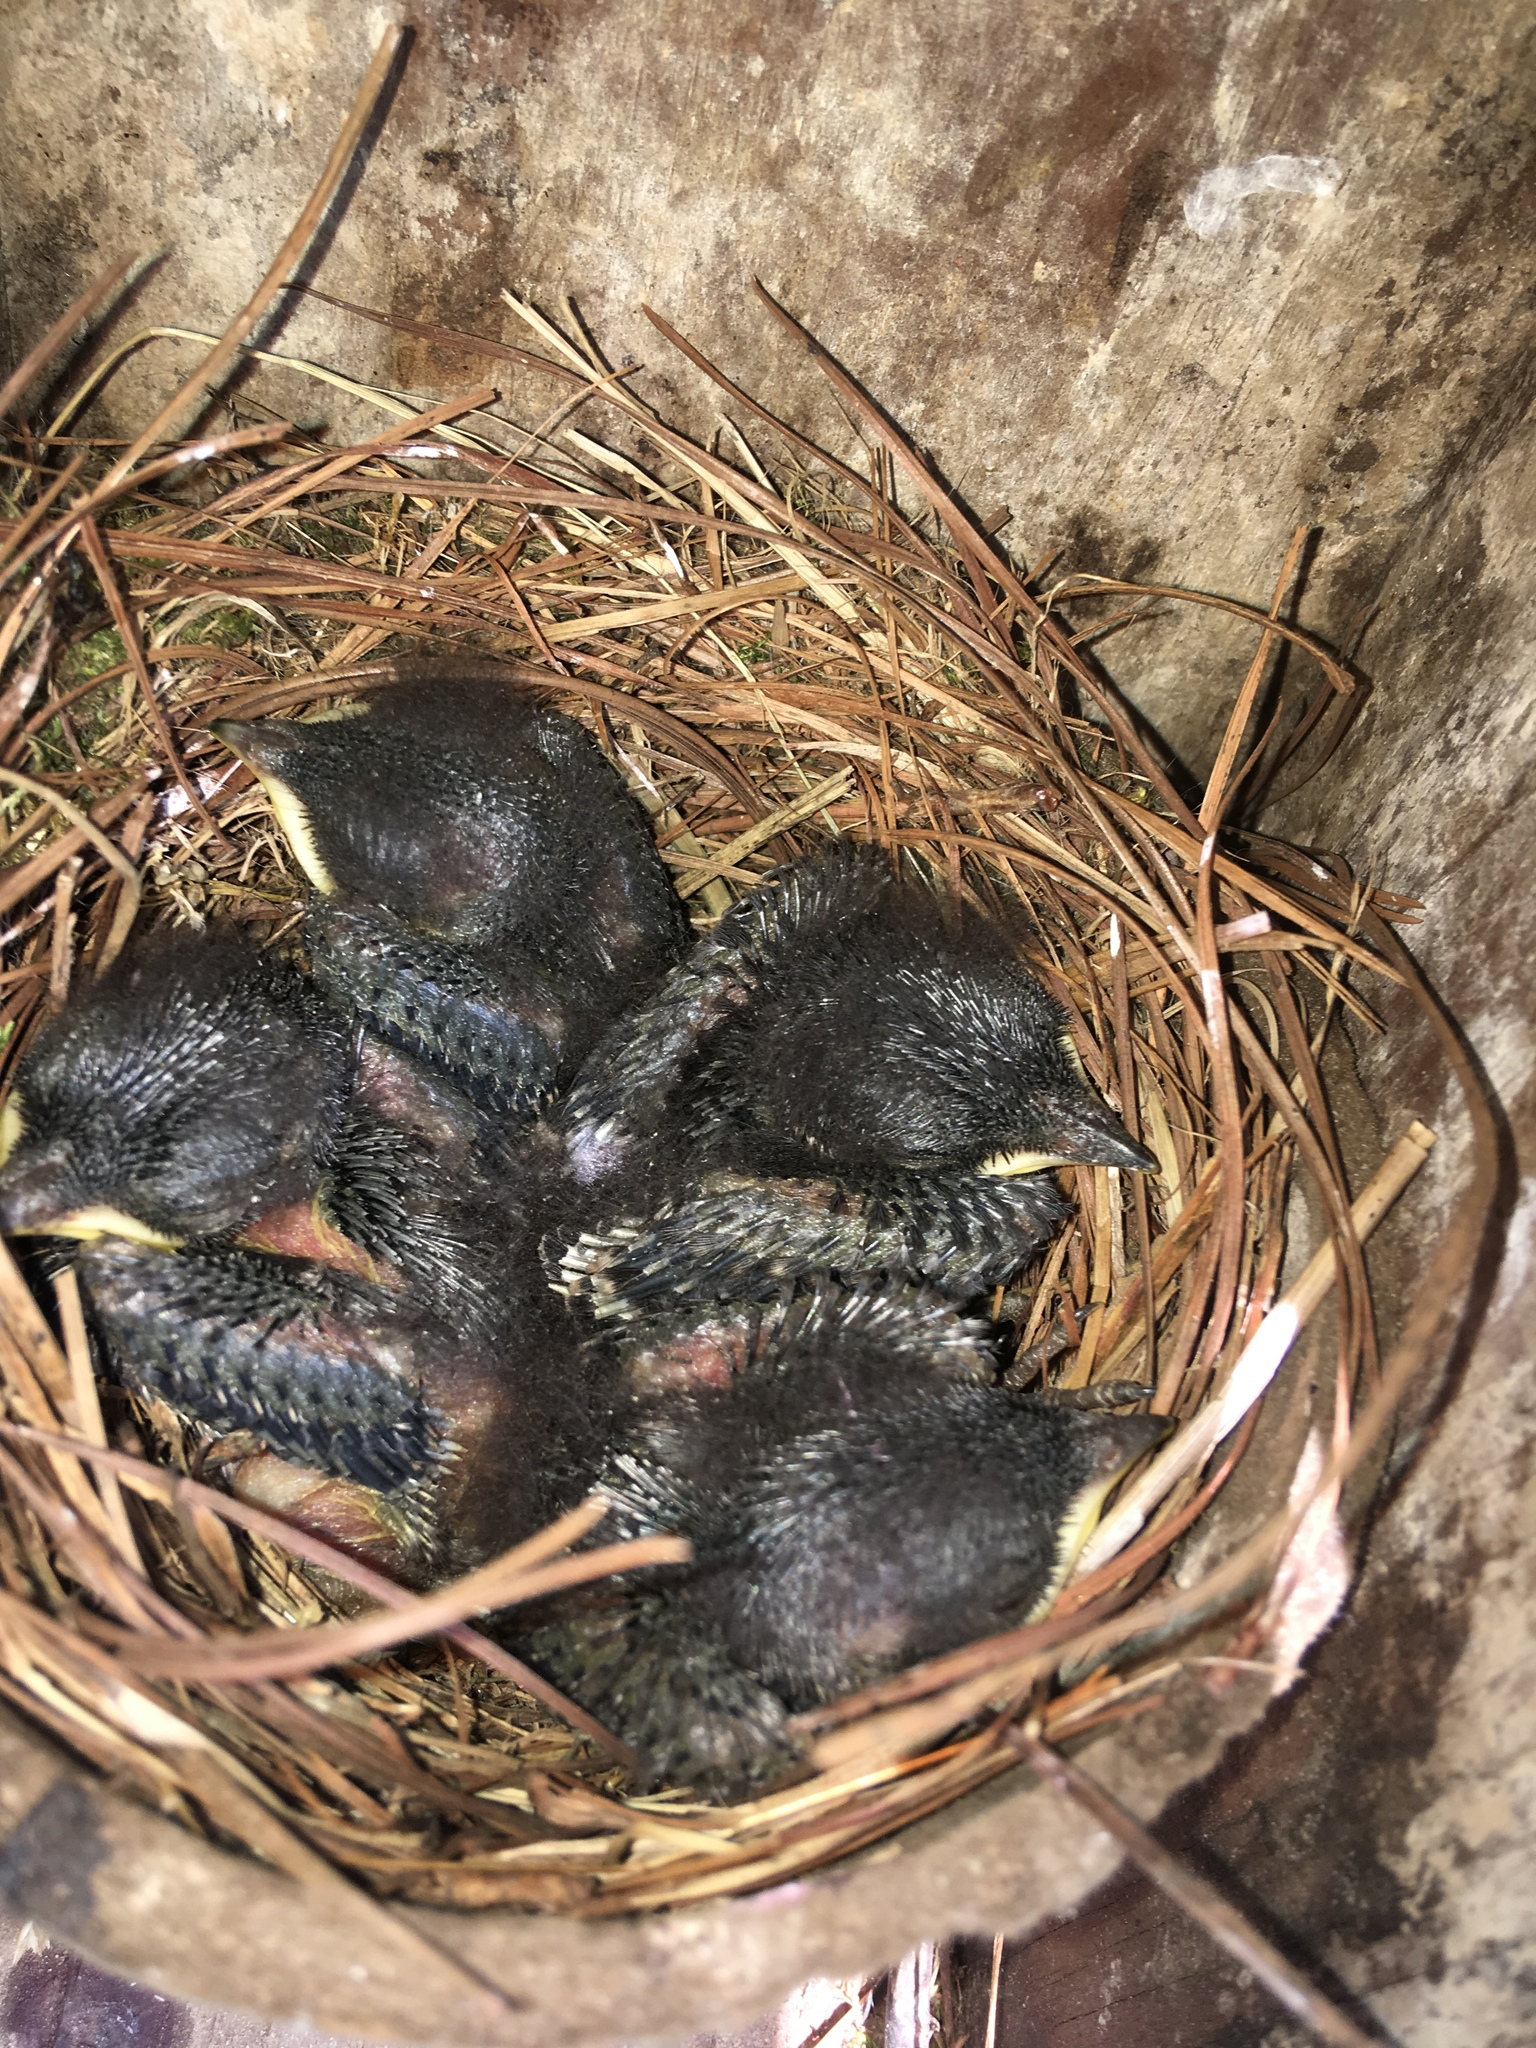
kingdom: Animalia
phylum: Chordata
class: Aves
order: Passeriformes
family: Turdidae
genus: Sialia
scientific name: Sialia sialis
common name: Eastern bluebird
